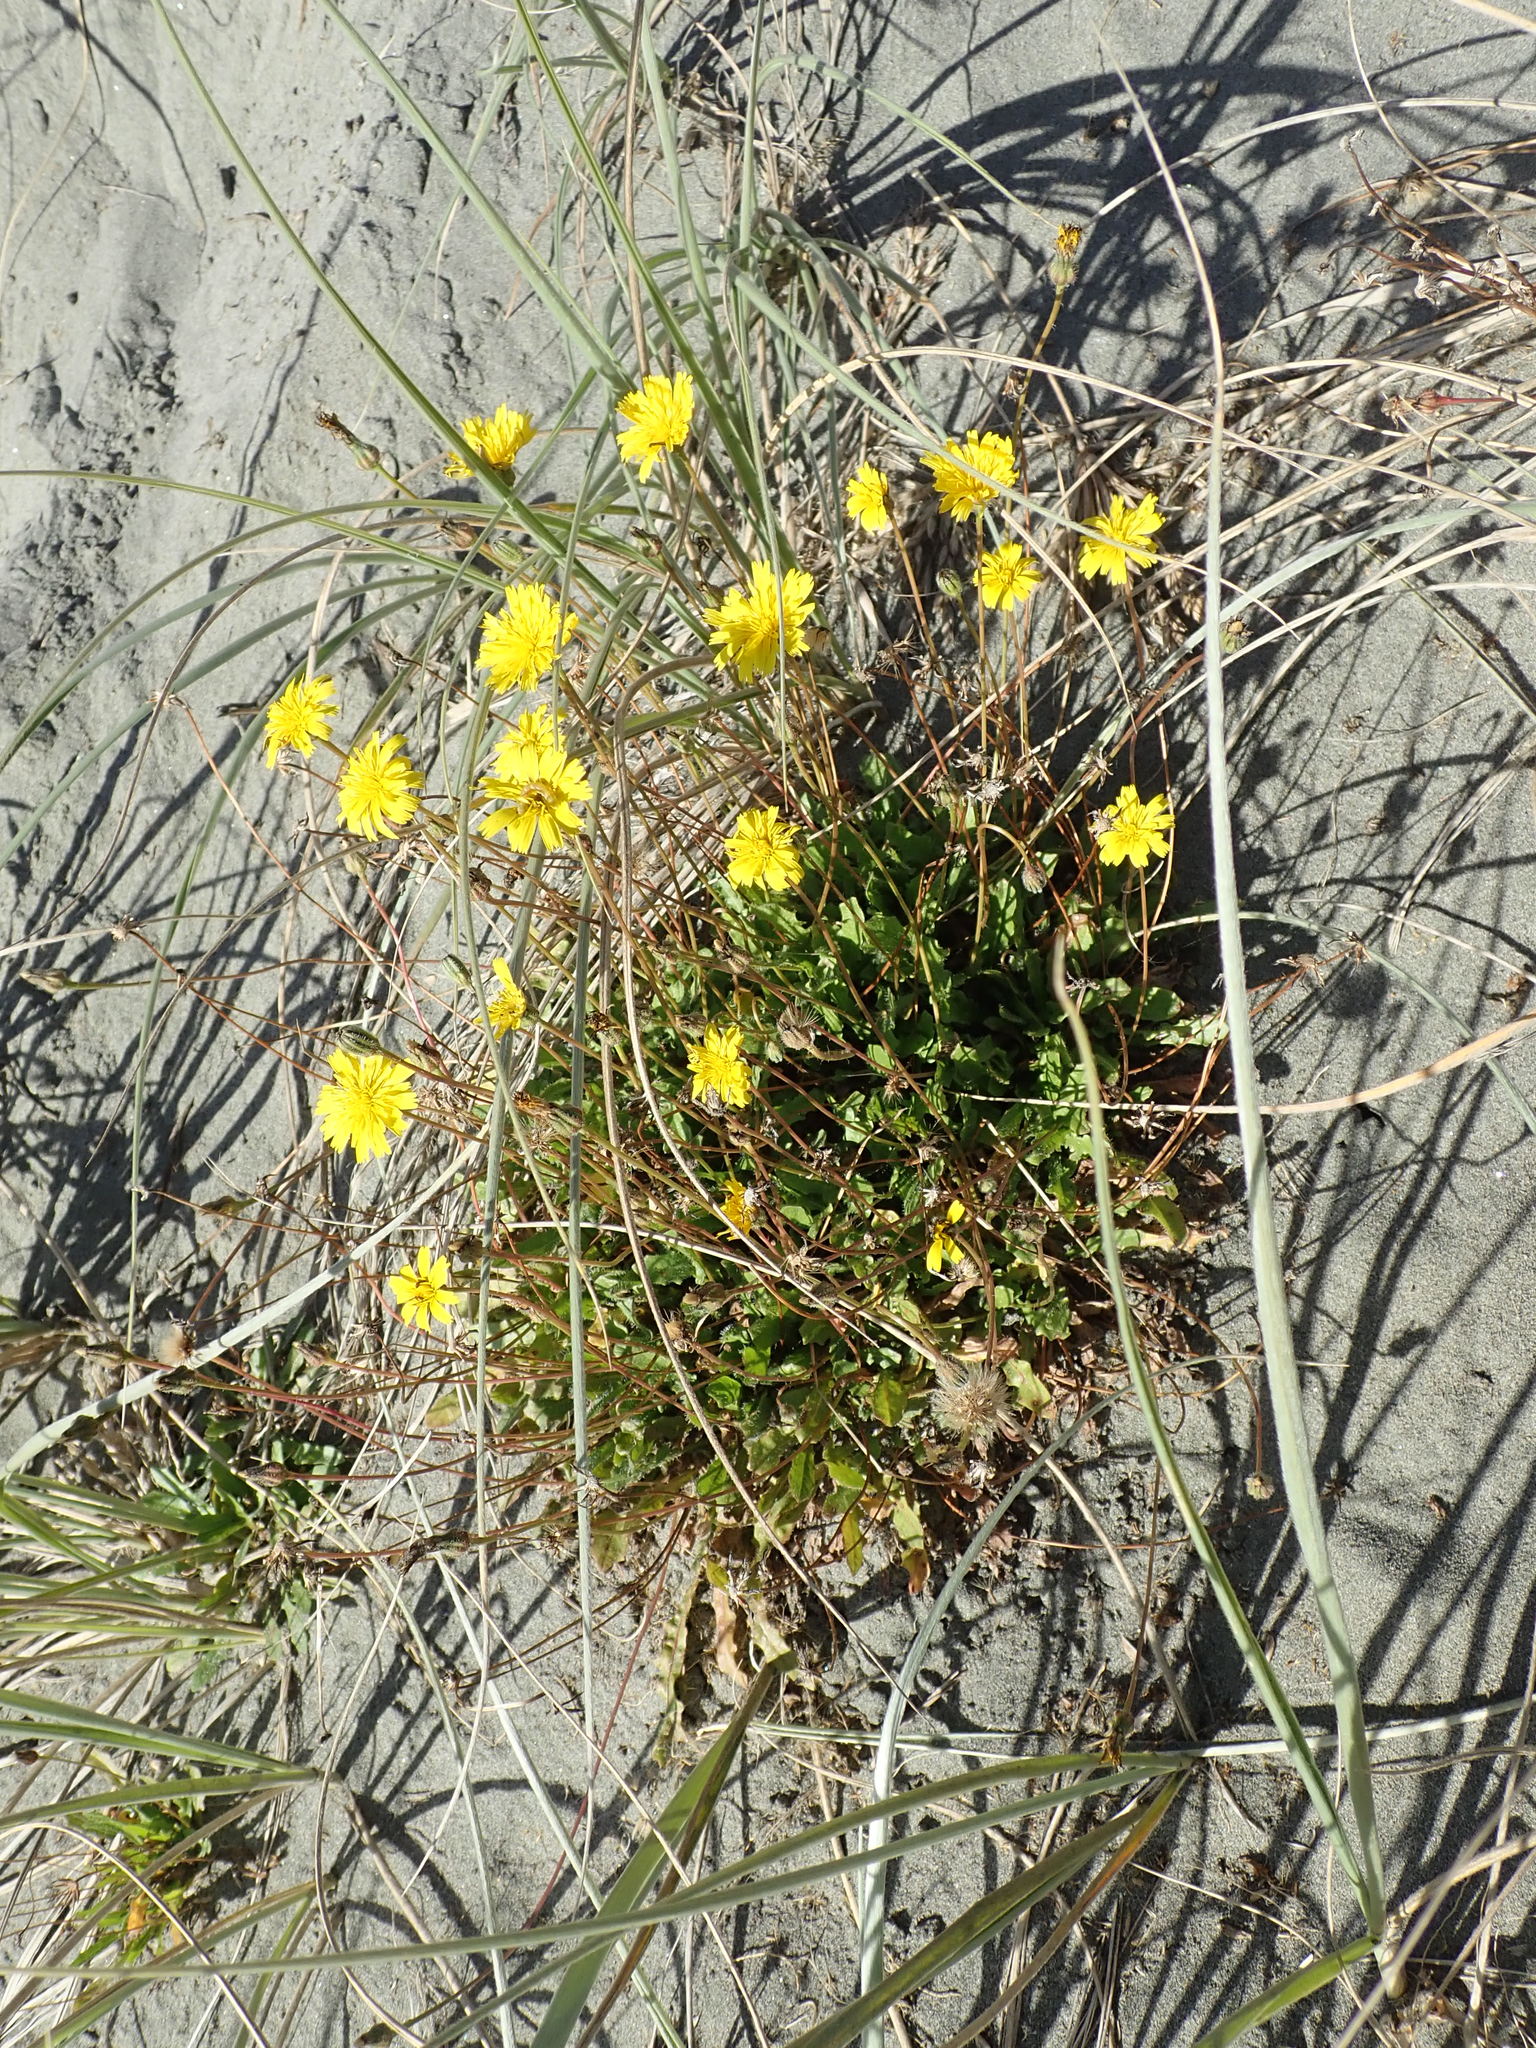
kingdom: Plantae
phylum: Tracheophyta
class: Magnoliopsida
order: Asterales
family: Asteraceae
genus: Hypochaeris
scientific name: Hypochaeris radicata
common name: Flatweed
